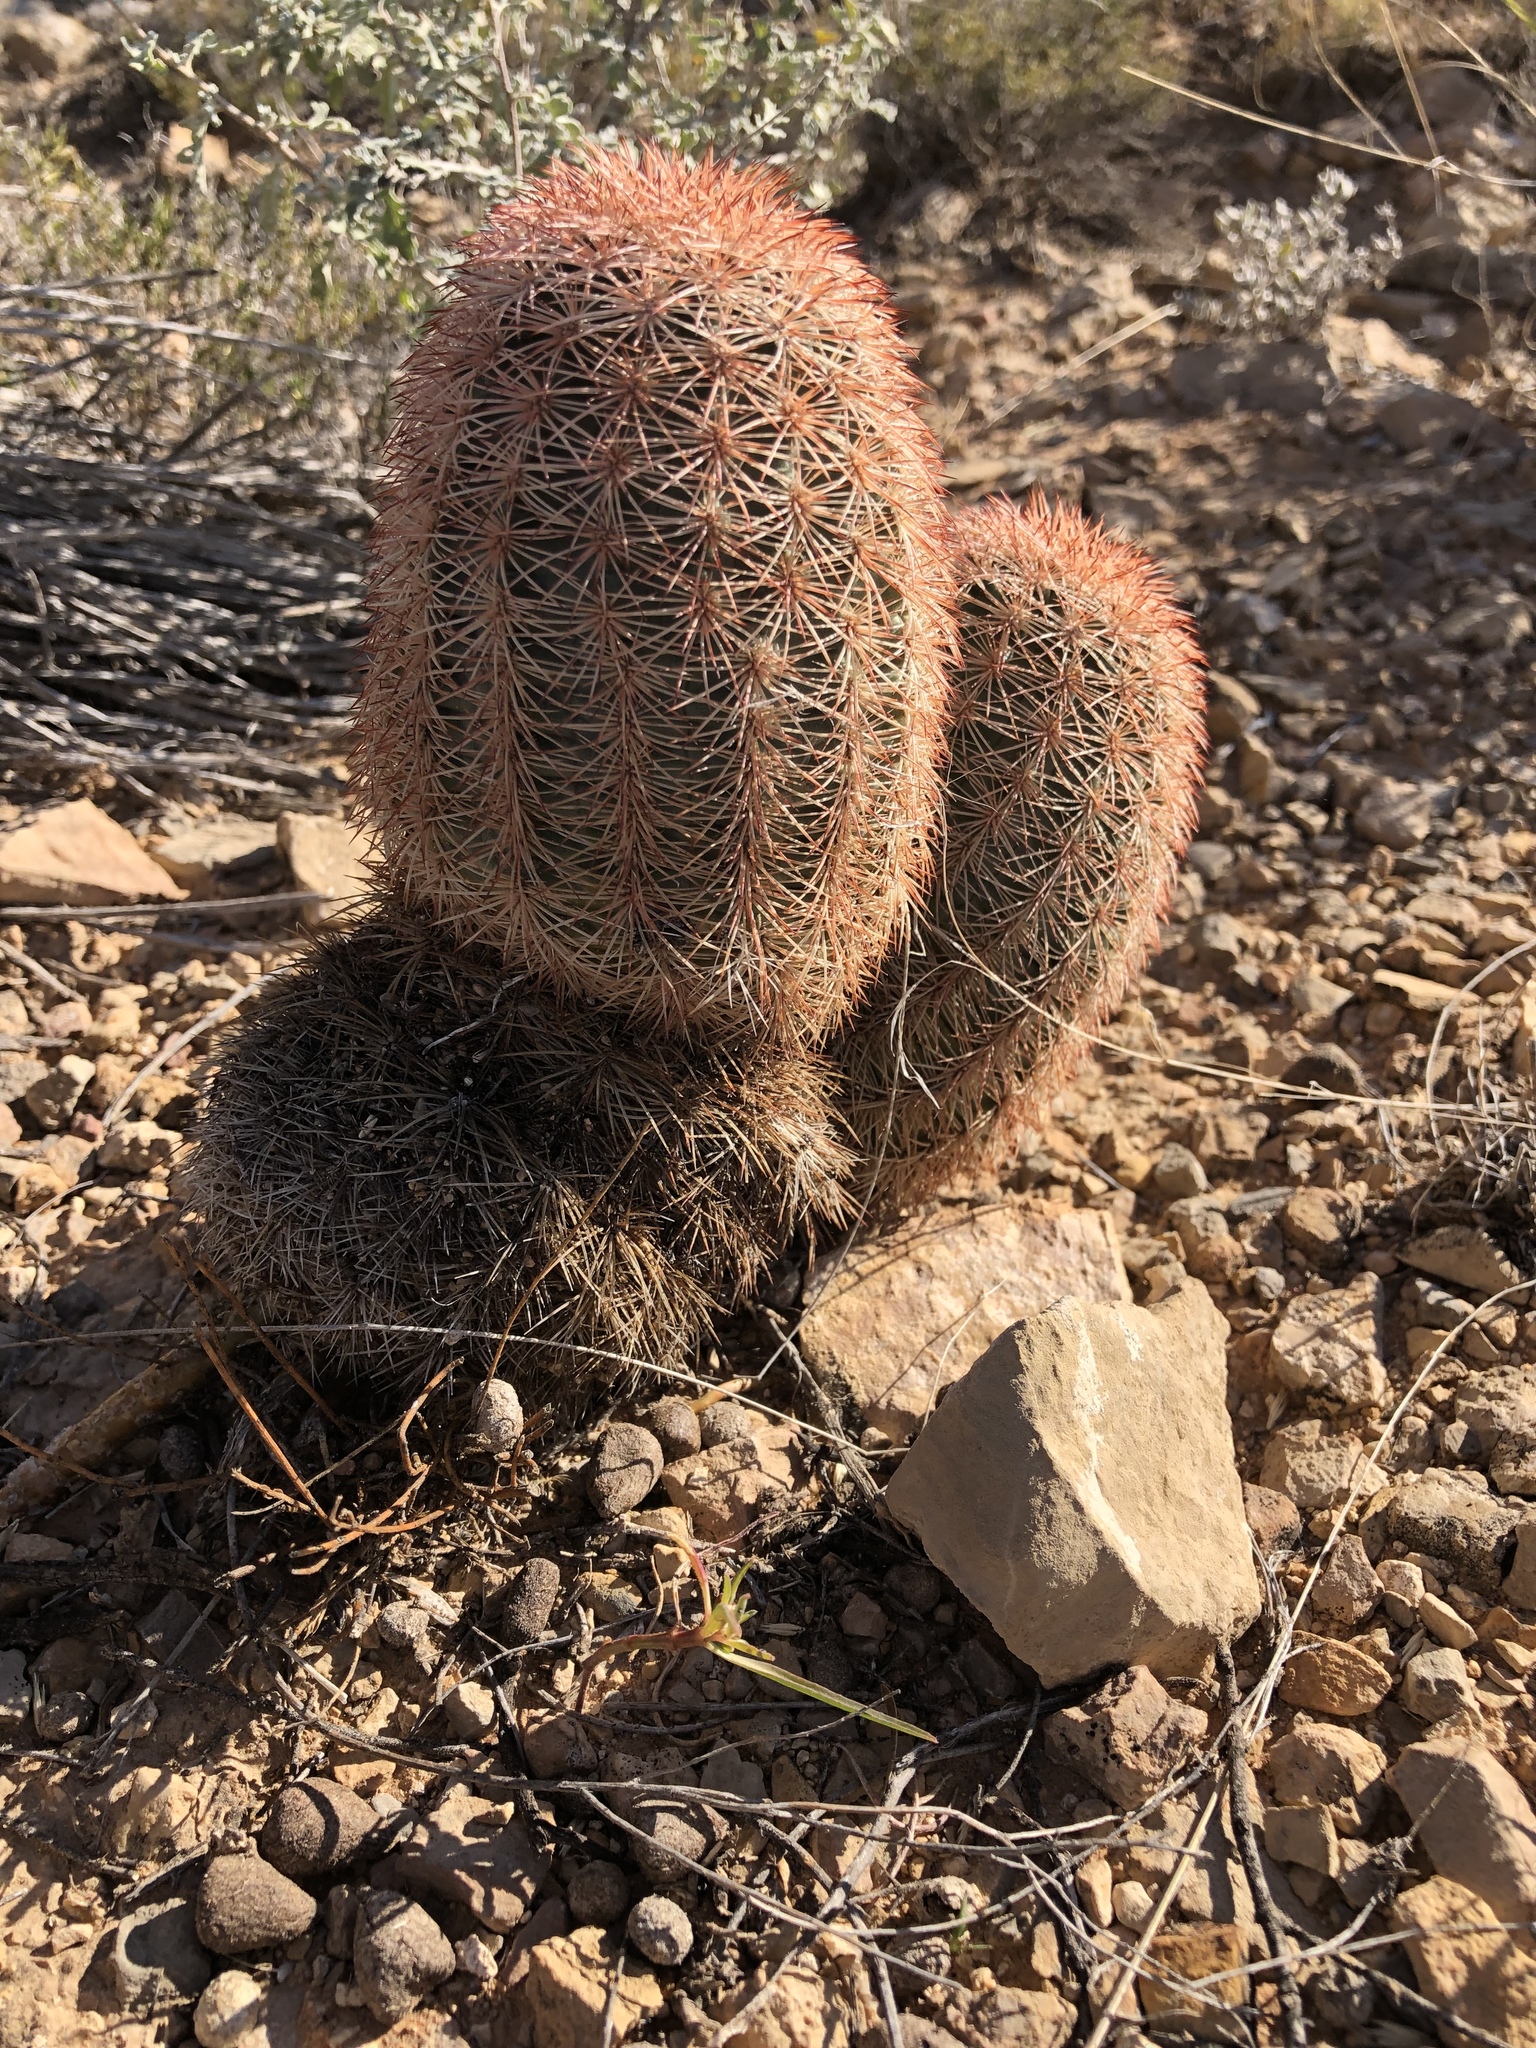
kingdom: Plantae
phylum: Tracheophyta
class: Magnoliopsida
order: Caryophyllales
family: Cactaceae
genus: Echinocereus
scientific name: Echinocereus dasyacanthus
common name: Spiny hedgehog cactus
